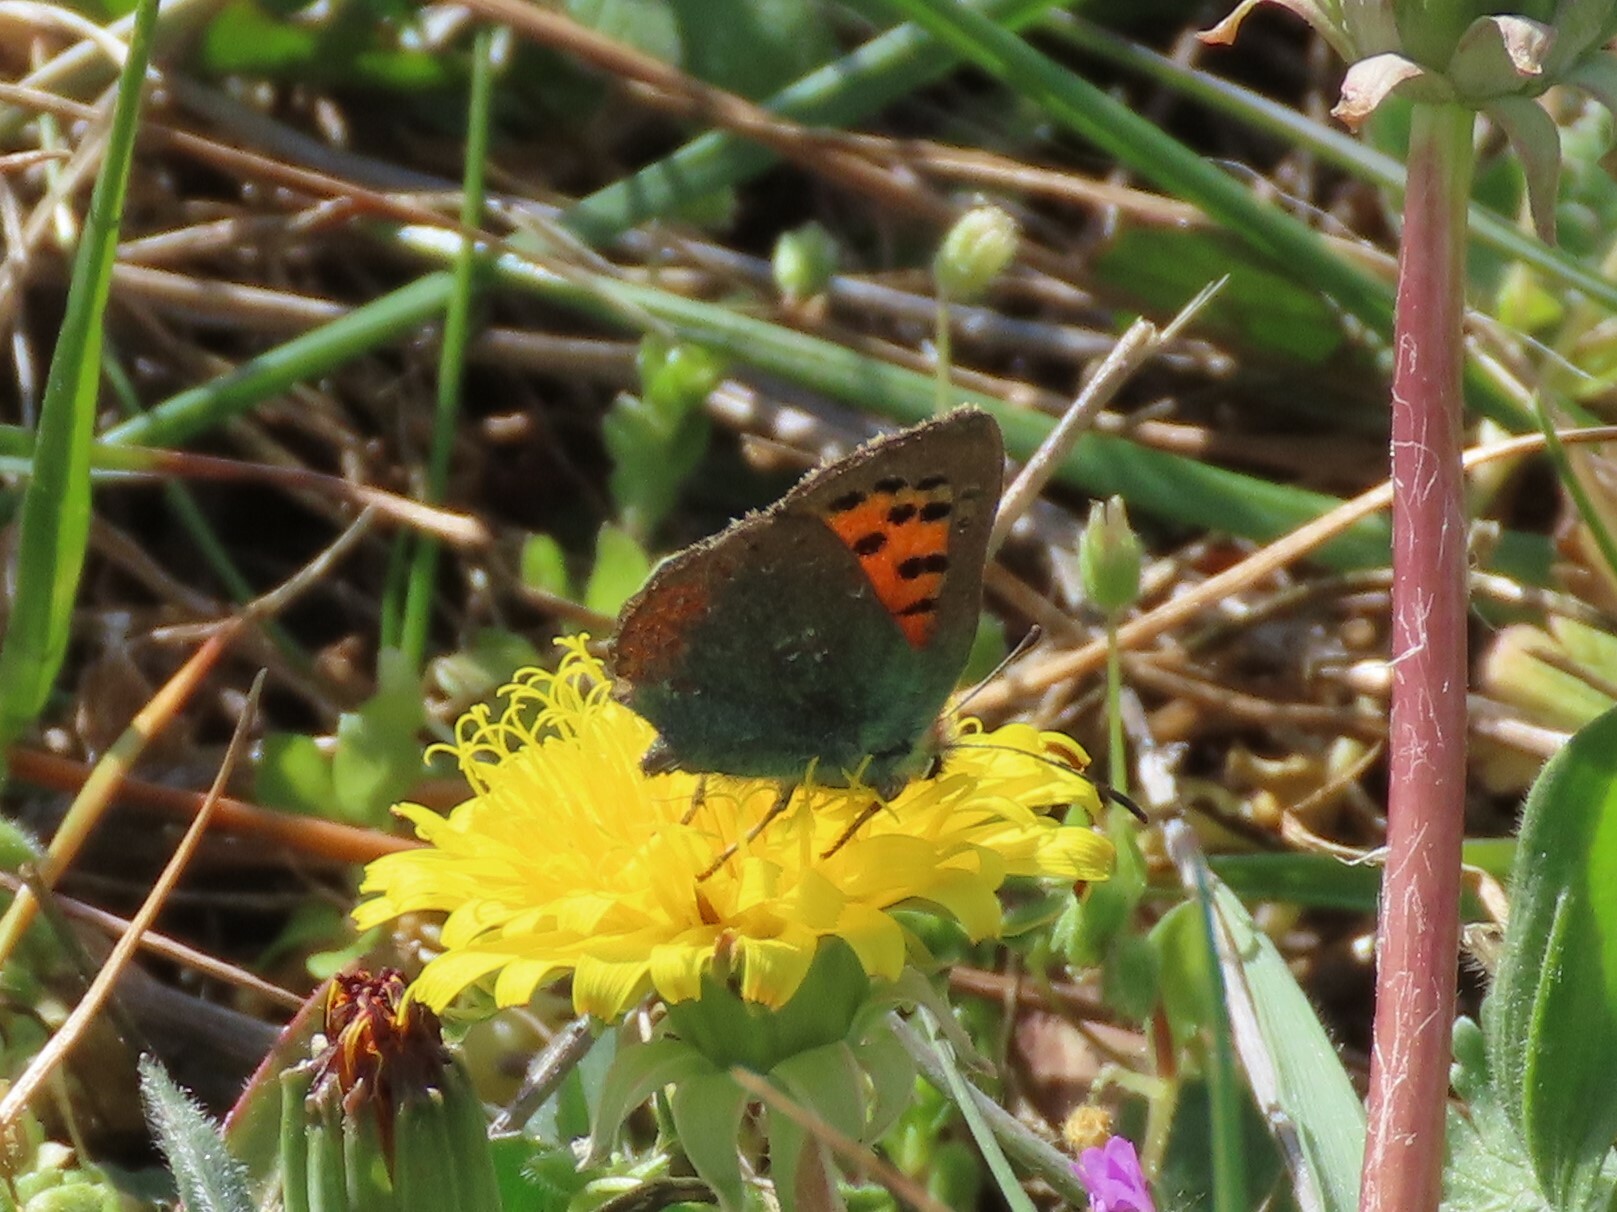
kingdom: Animalia
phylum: Arthropoda
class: Insecta
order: Lepidoptera
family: Lycaenidae
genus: Tomares
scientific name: Tomares ballus
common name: Provence hairstreak
